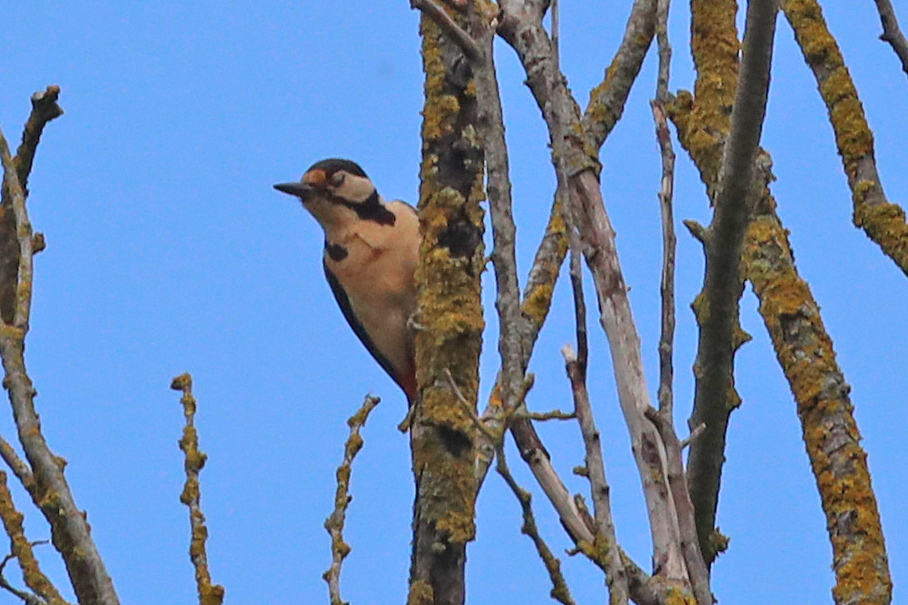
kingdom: Animalia
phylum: Chordata
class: Aves
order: Piciformes
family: Picidae
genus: Dendrocopos
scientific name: Dendrocopos major
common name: Great spotted woodpecker
